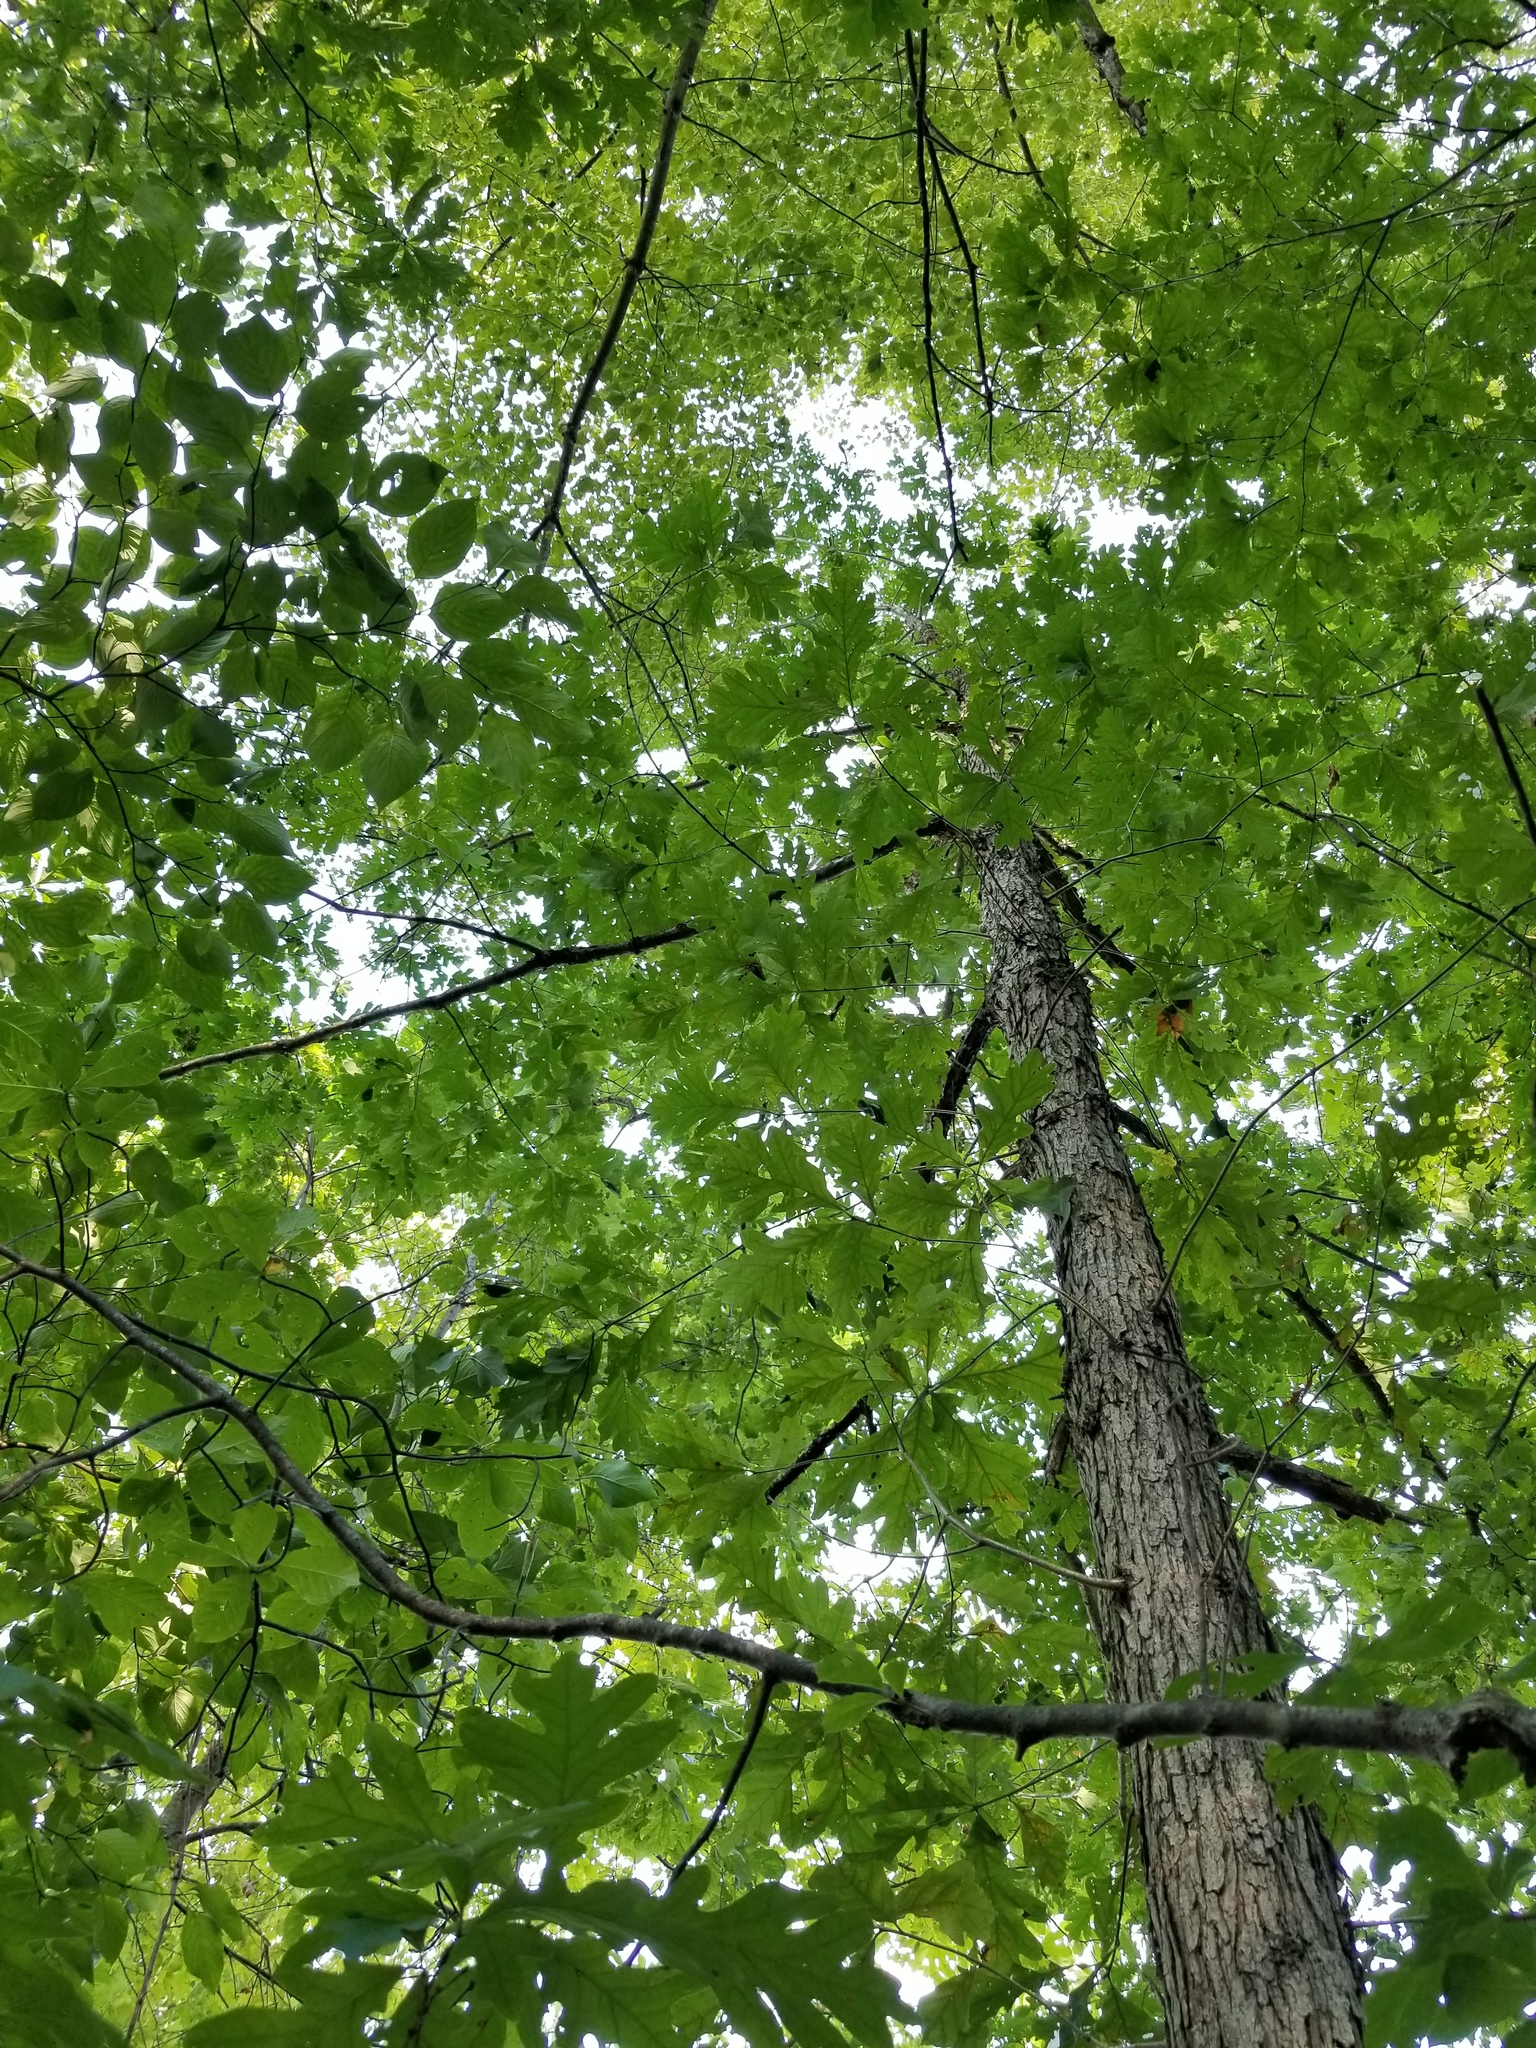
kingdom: Plantae
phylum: Tracheophyta
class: Magnoliopsida
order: Fagales
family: Fagaceae
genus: Quercus
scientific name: Quercus alba
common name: White oak
